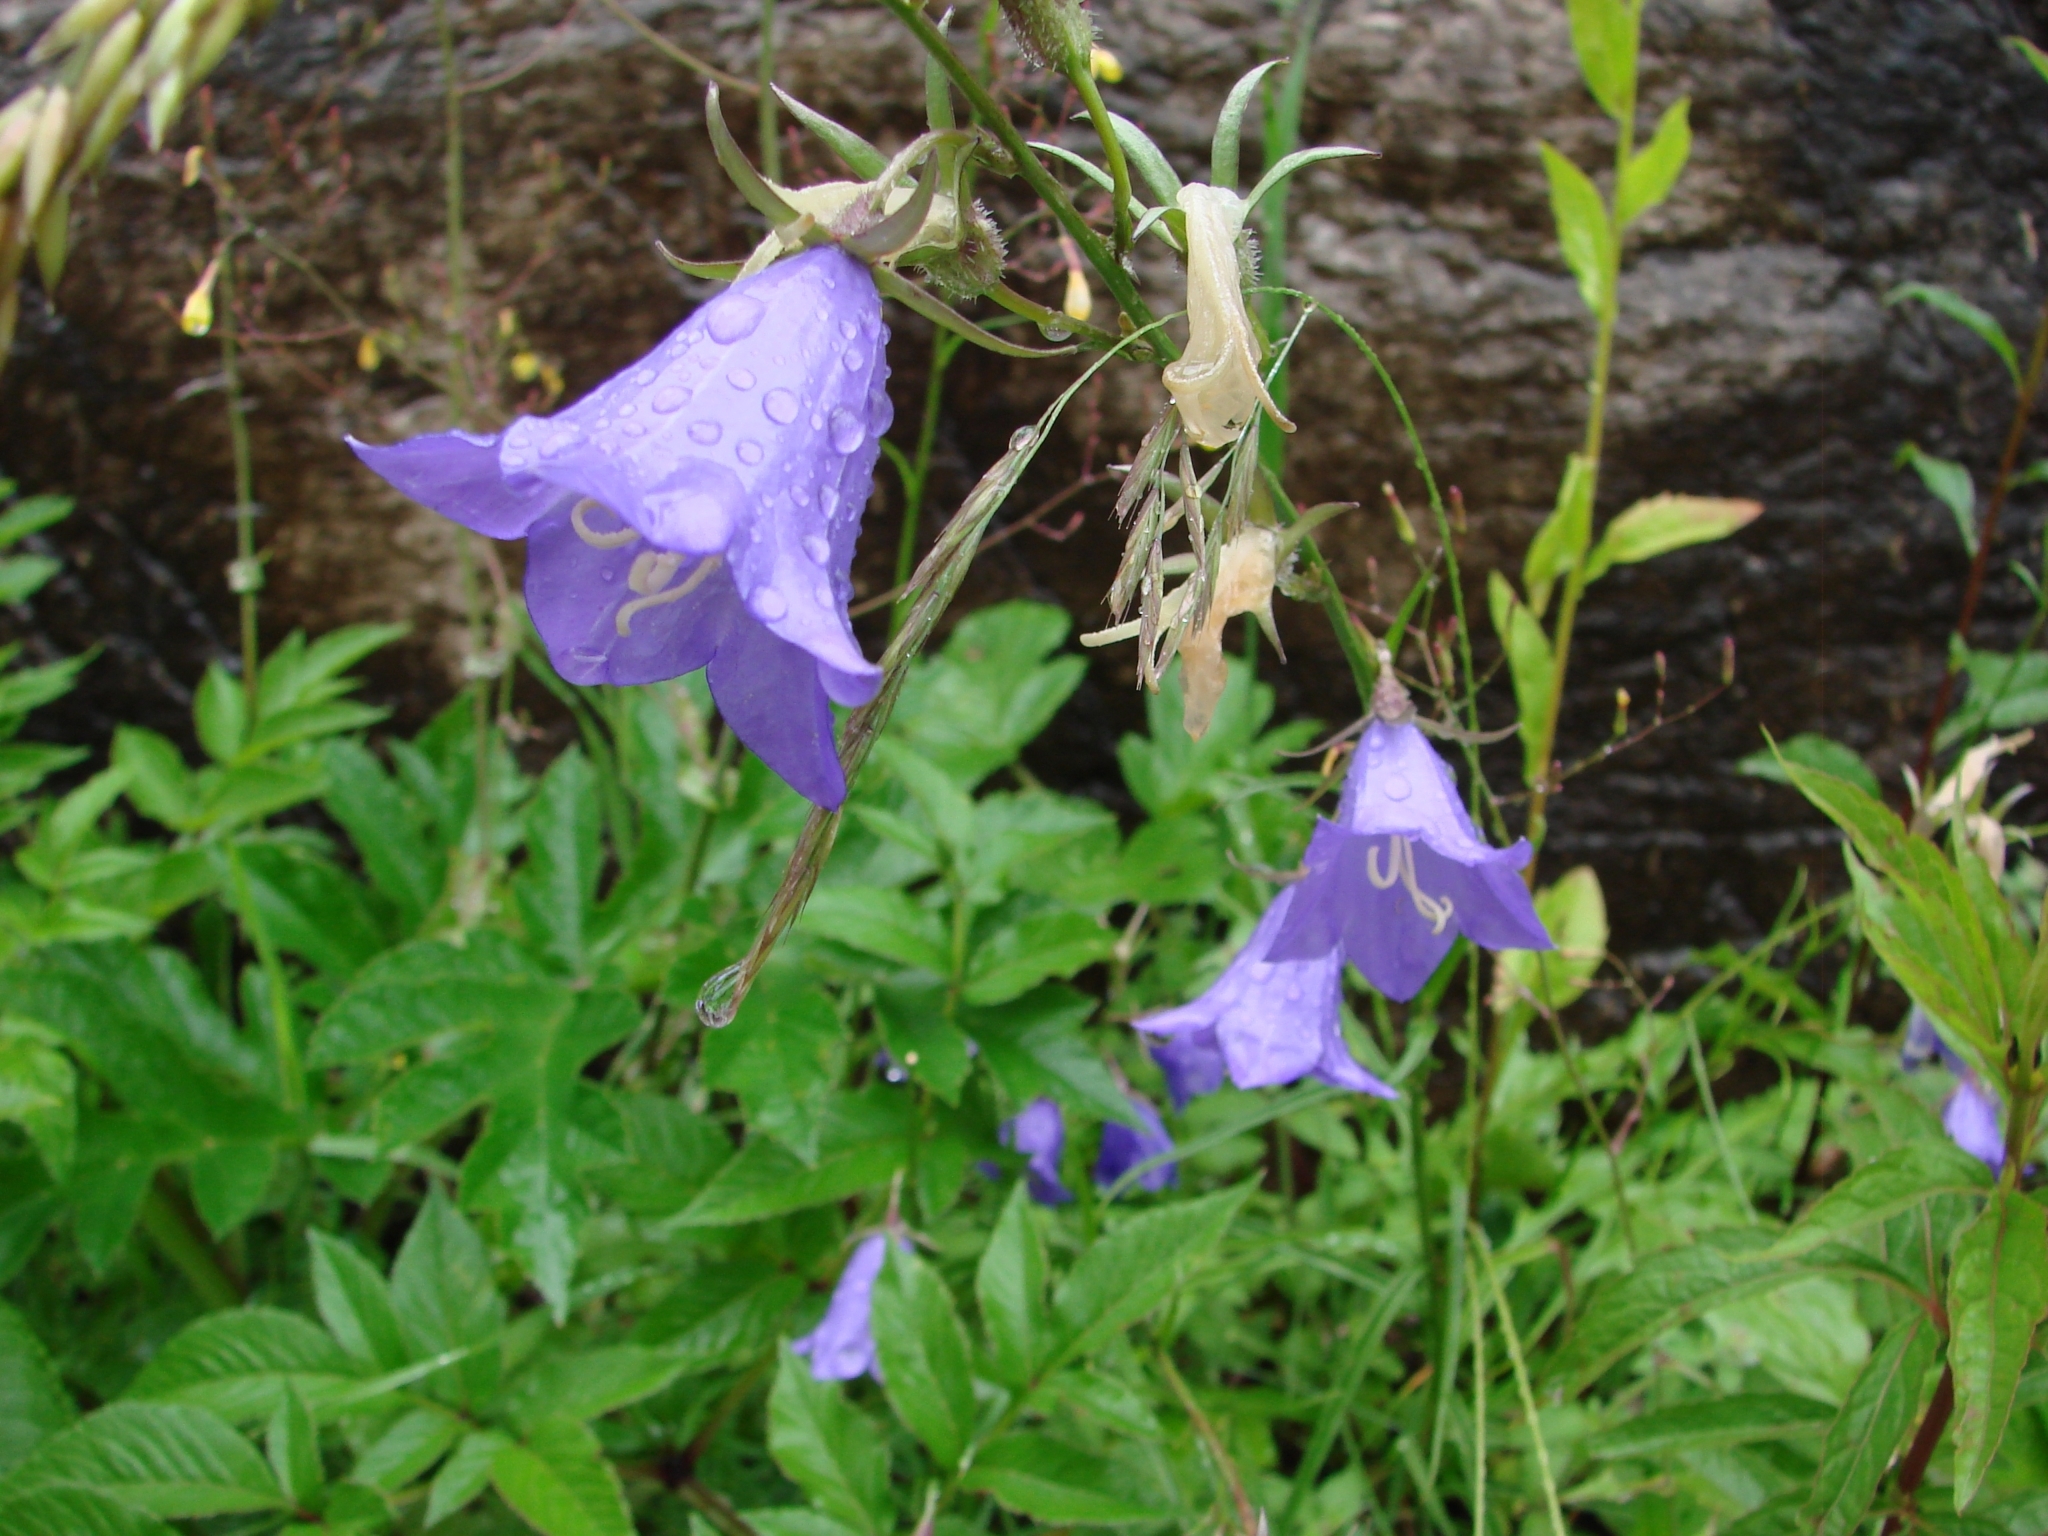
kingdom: Plantae
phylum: Tracheophyta
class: Magnoliopsida
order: Asterales
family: Campanulaceae
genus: Campanula
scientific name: Campanula persicifolia
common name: Peach-leaved bellflower
